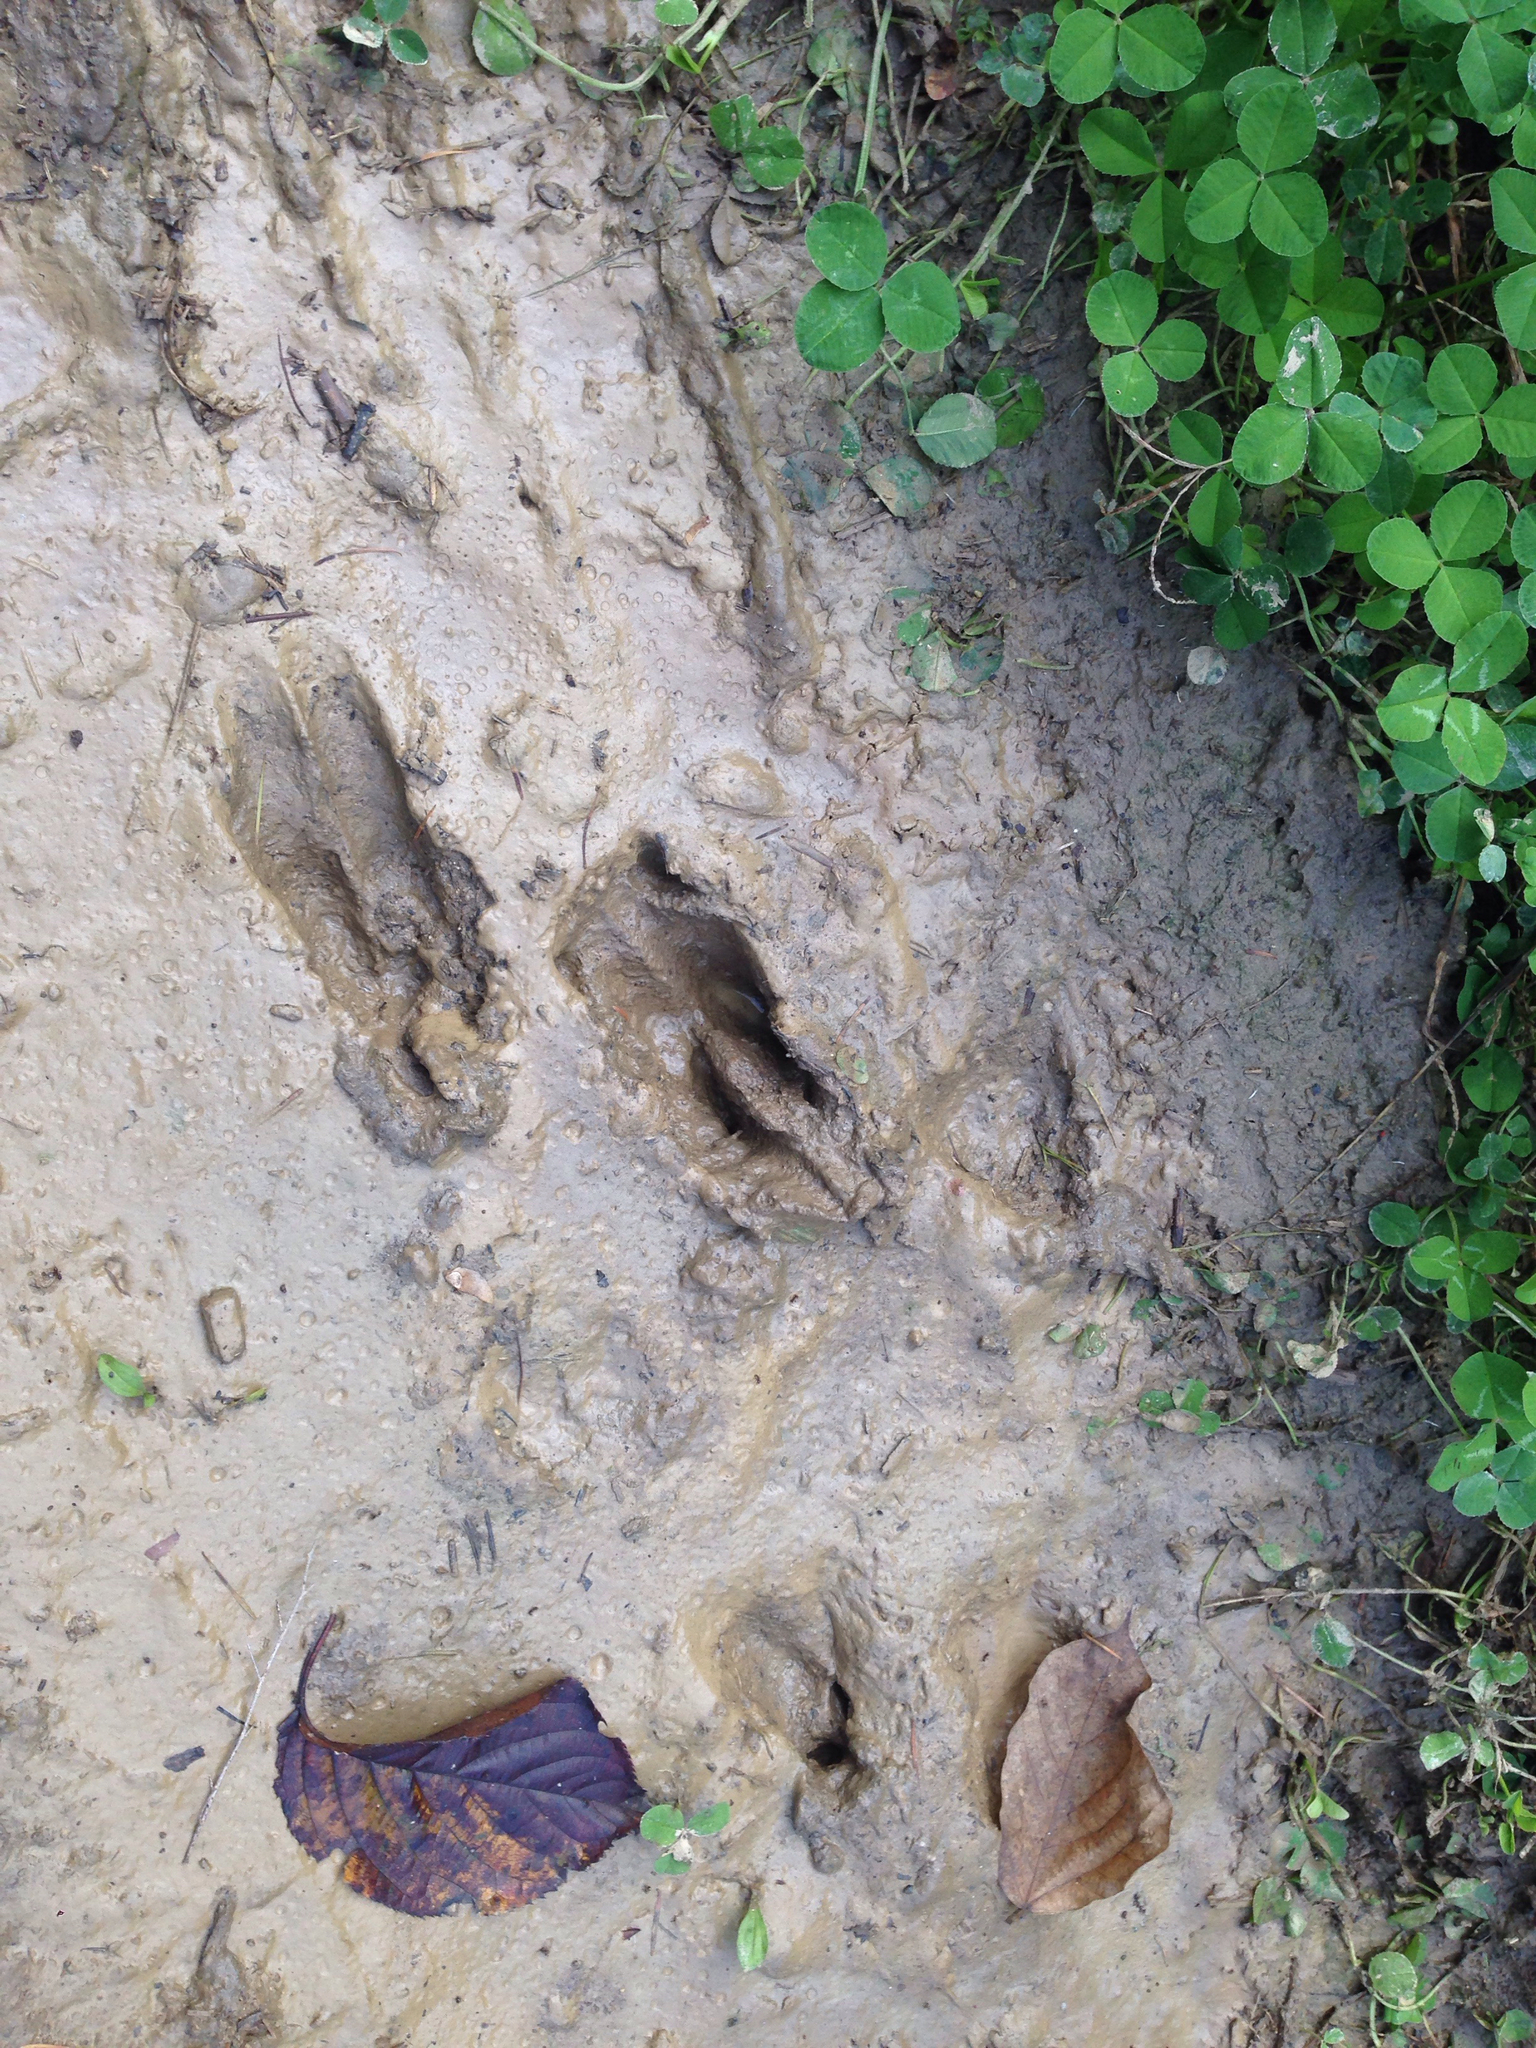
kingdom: Animalia
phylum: Chordata
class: Mammalia
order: Artiodactyla
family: Cervidae
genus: Hydropotes
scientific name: Hydropotes inermis
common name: Chinese water deer
